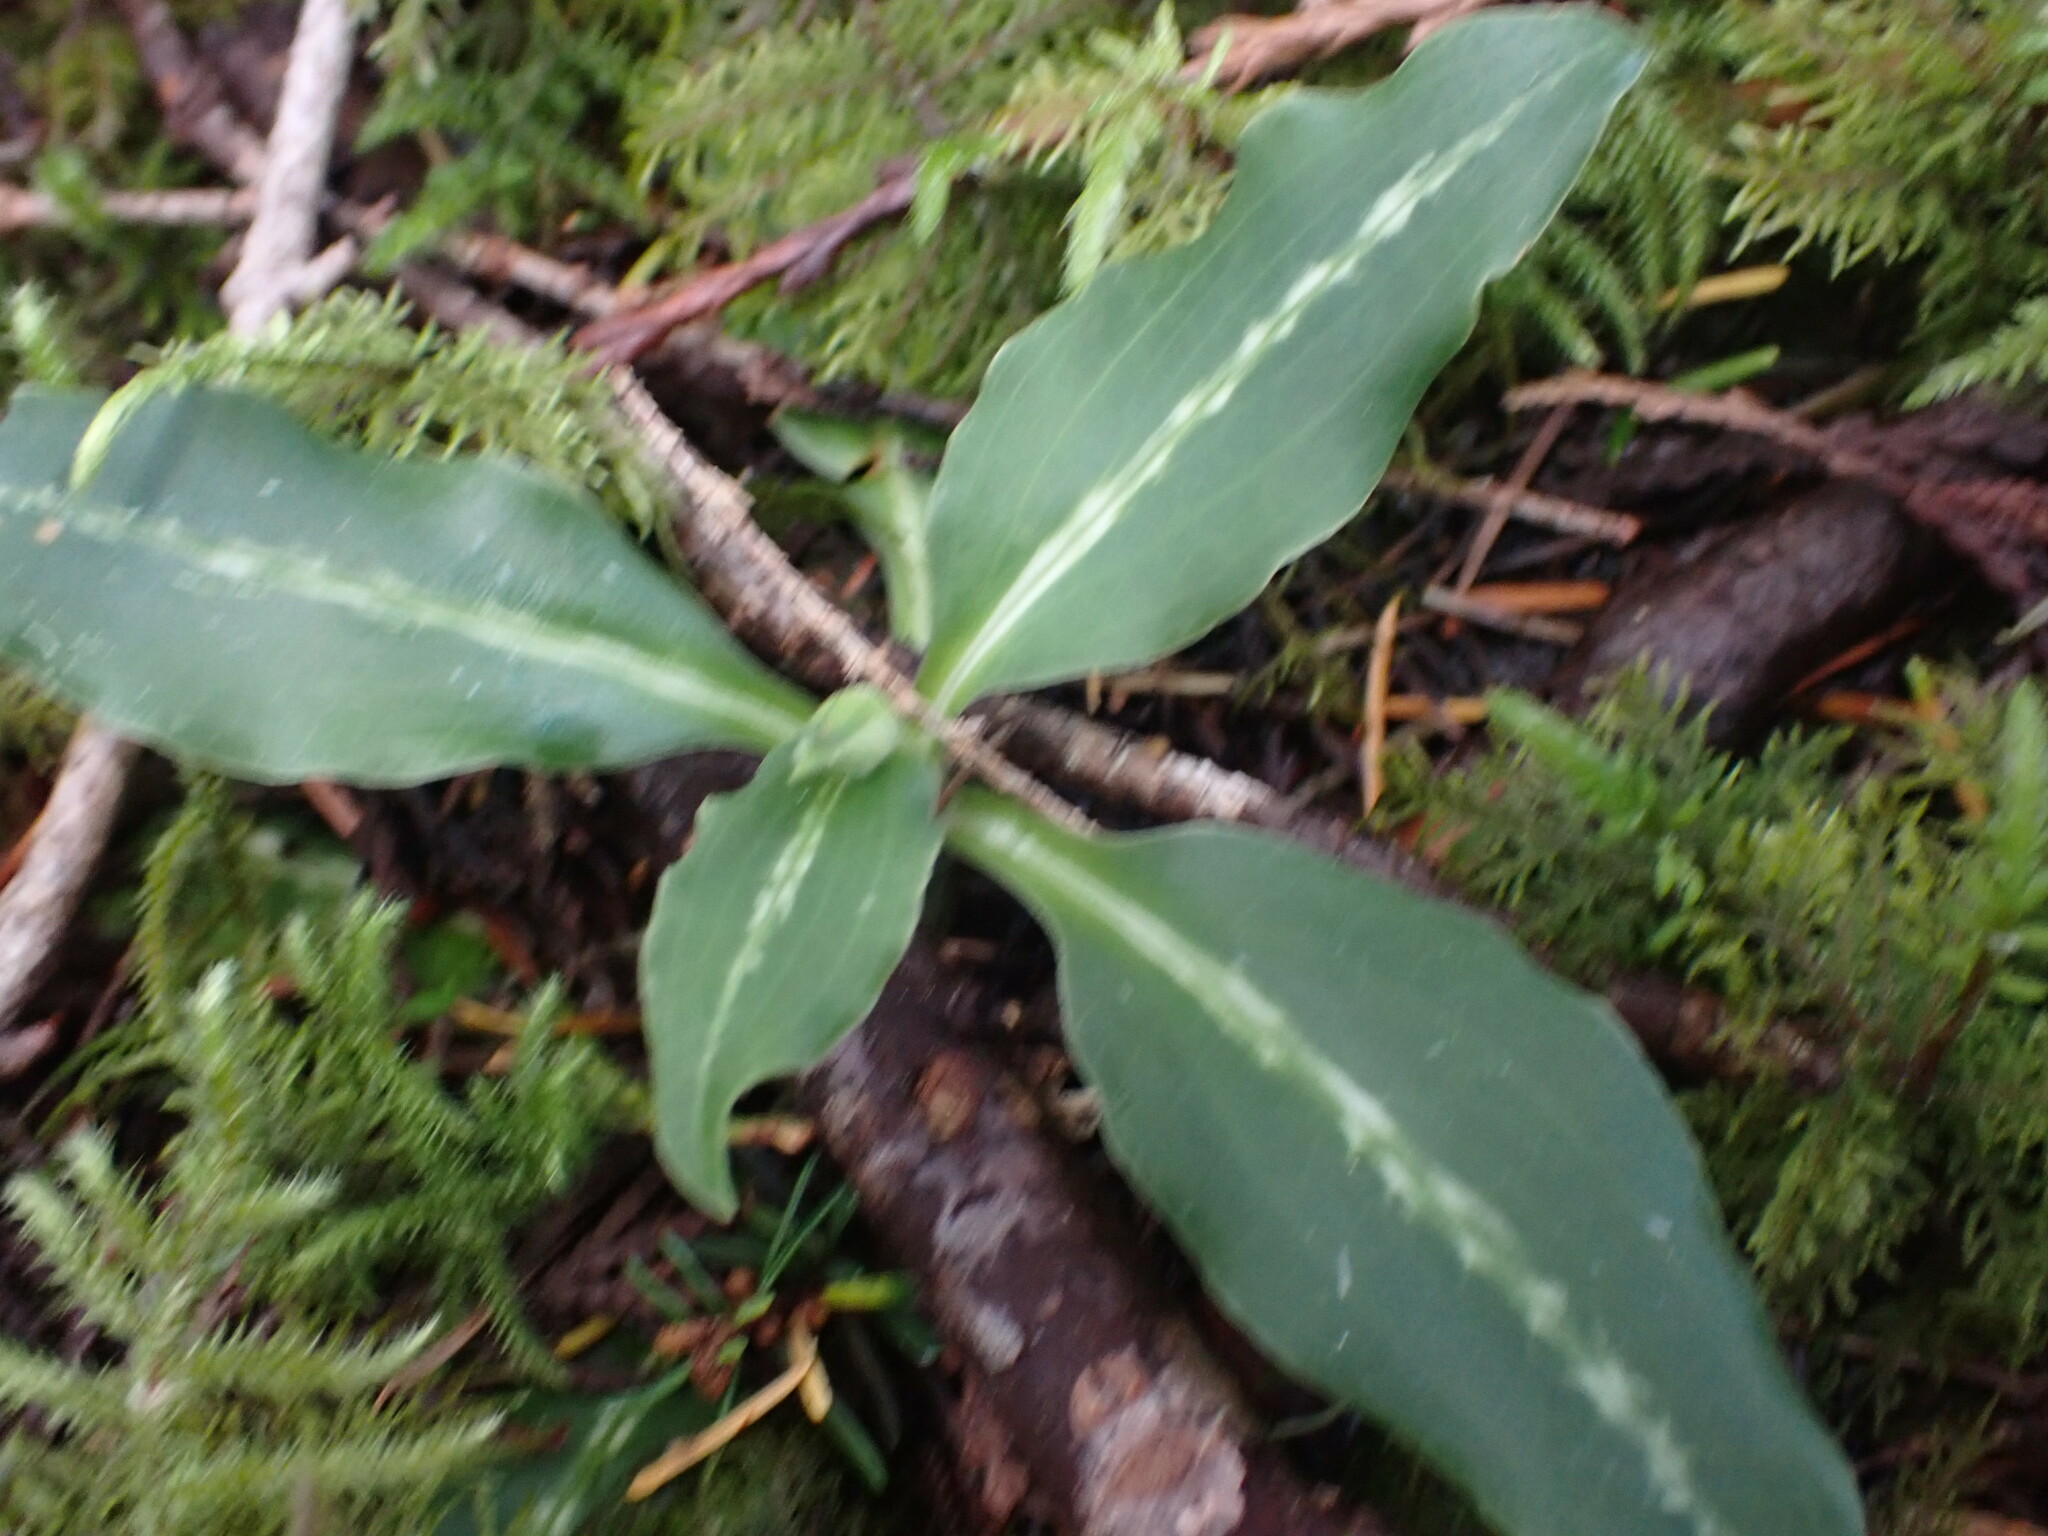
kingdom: Plantae
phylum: Tracheophyta
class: Liliopsida
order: Asparagales
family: Orchidaceae
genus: Goodyera
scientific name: Goodyera oblongifolia
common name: Giant rattlesnake-plantain
